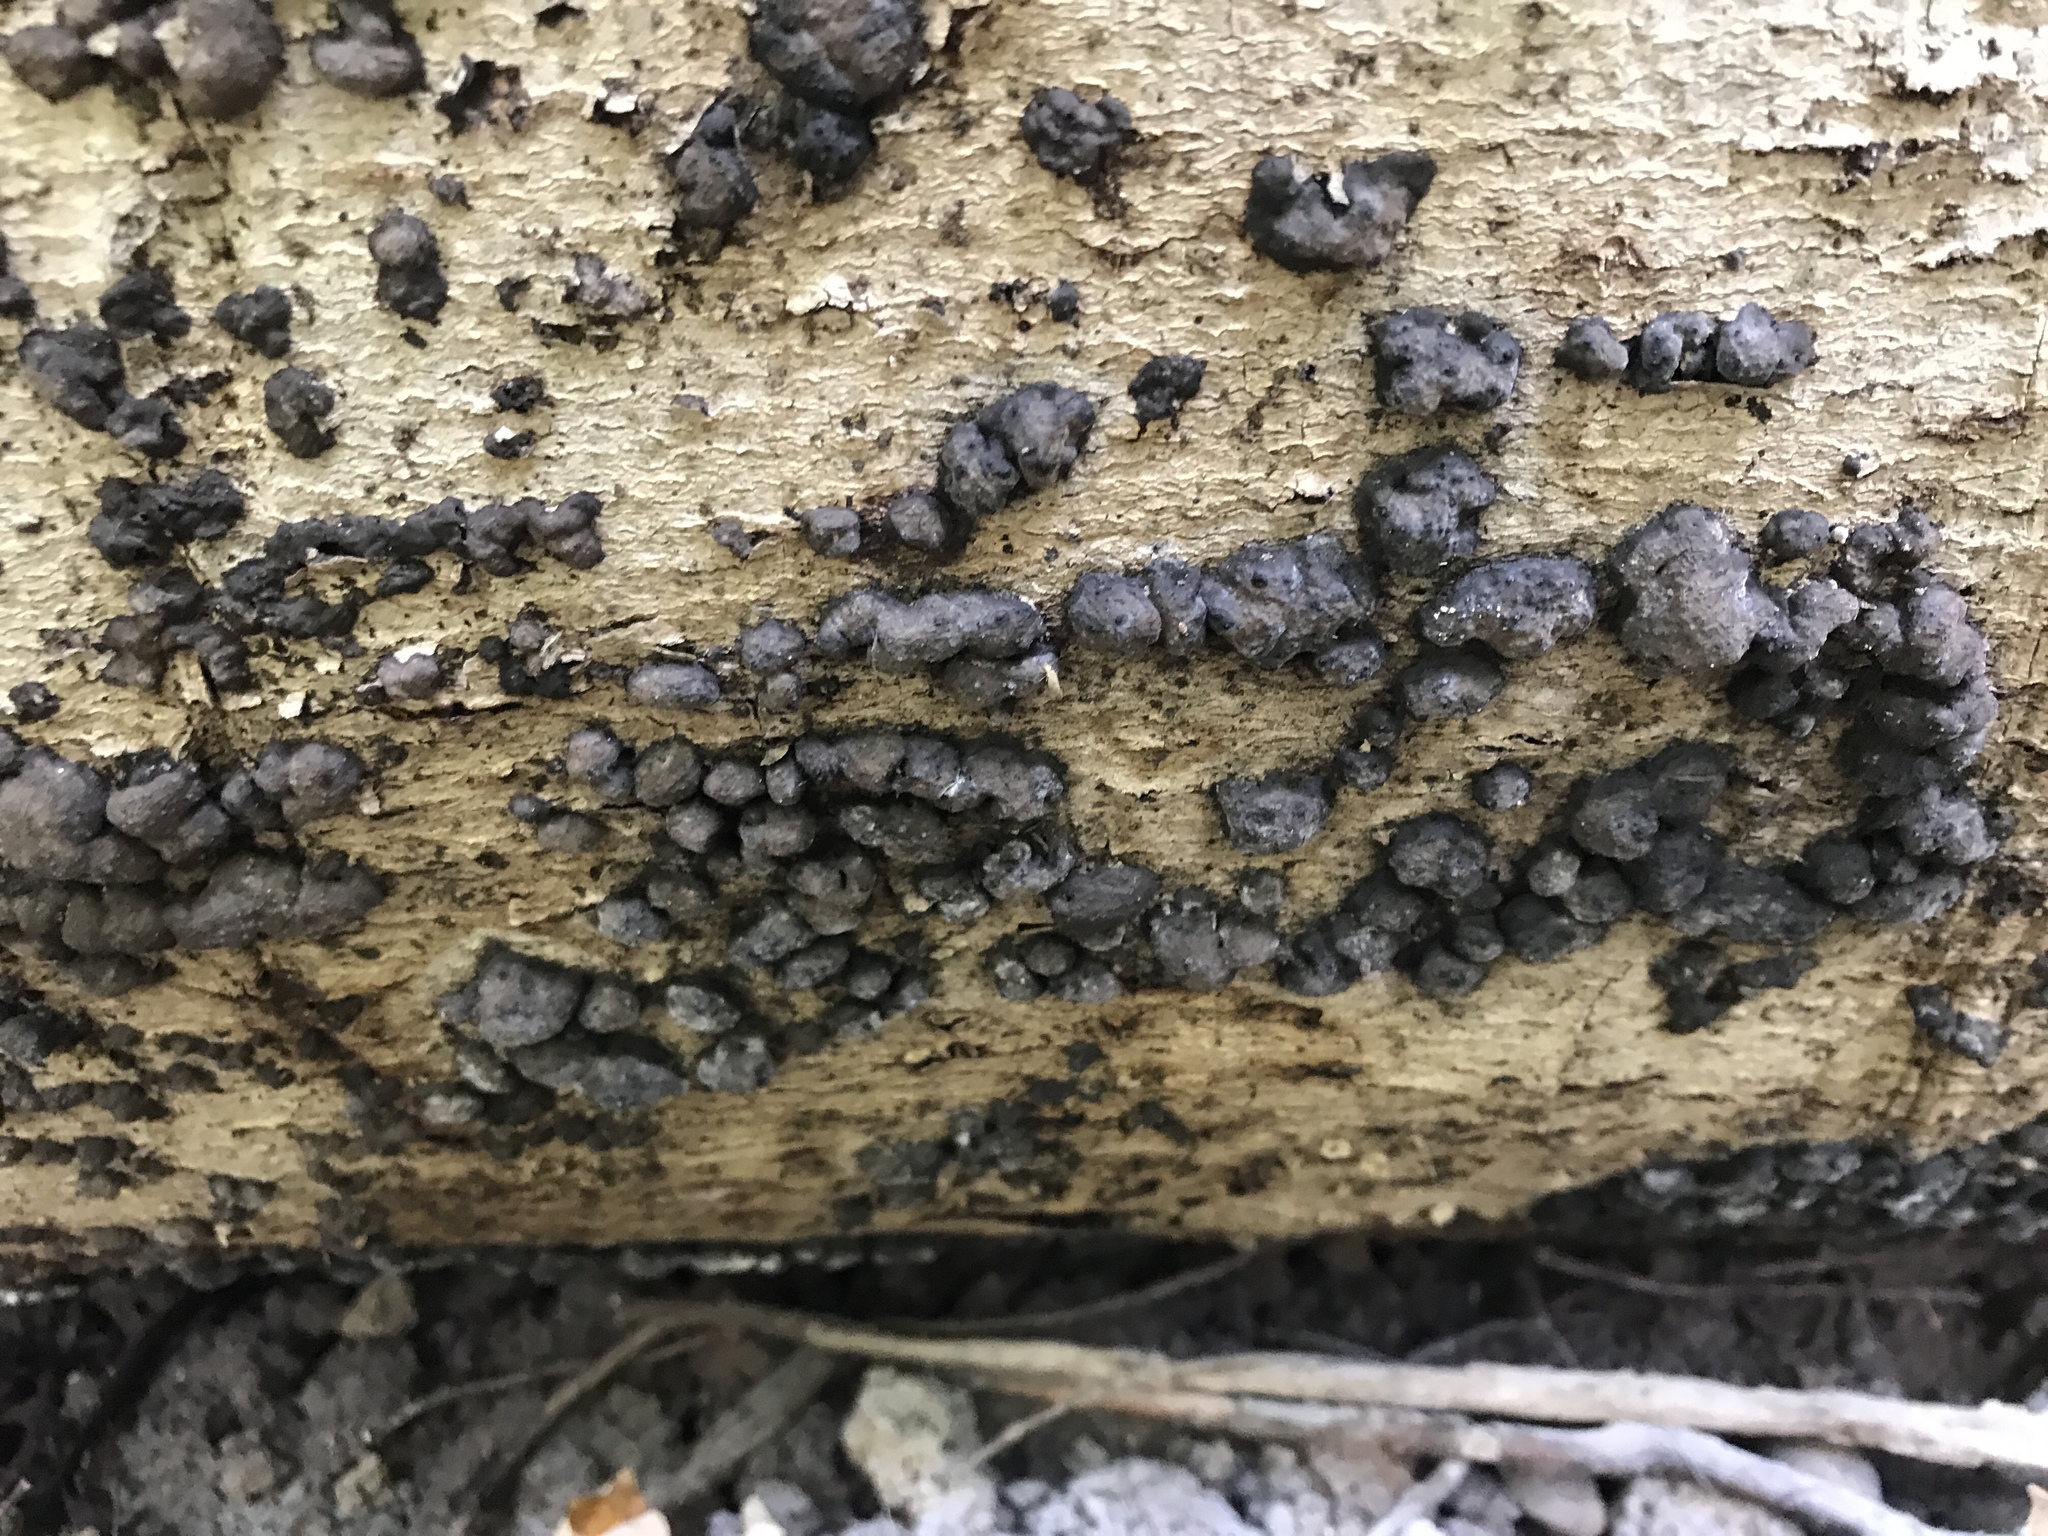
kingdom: Fungi
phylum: Ascomycota
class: Sordariomycetes
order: Xylariales
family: Xylariaceae
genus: Rosellinia
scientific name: Rosellinia corticium
